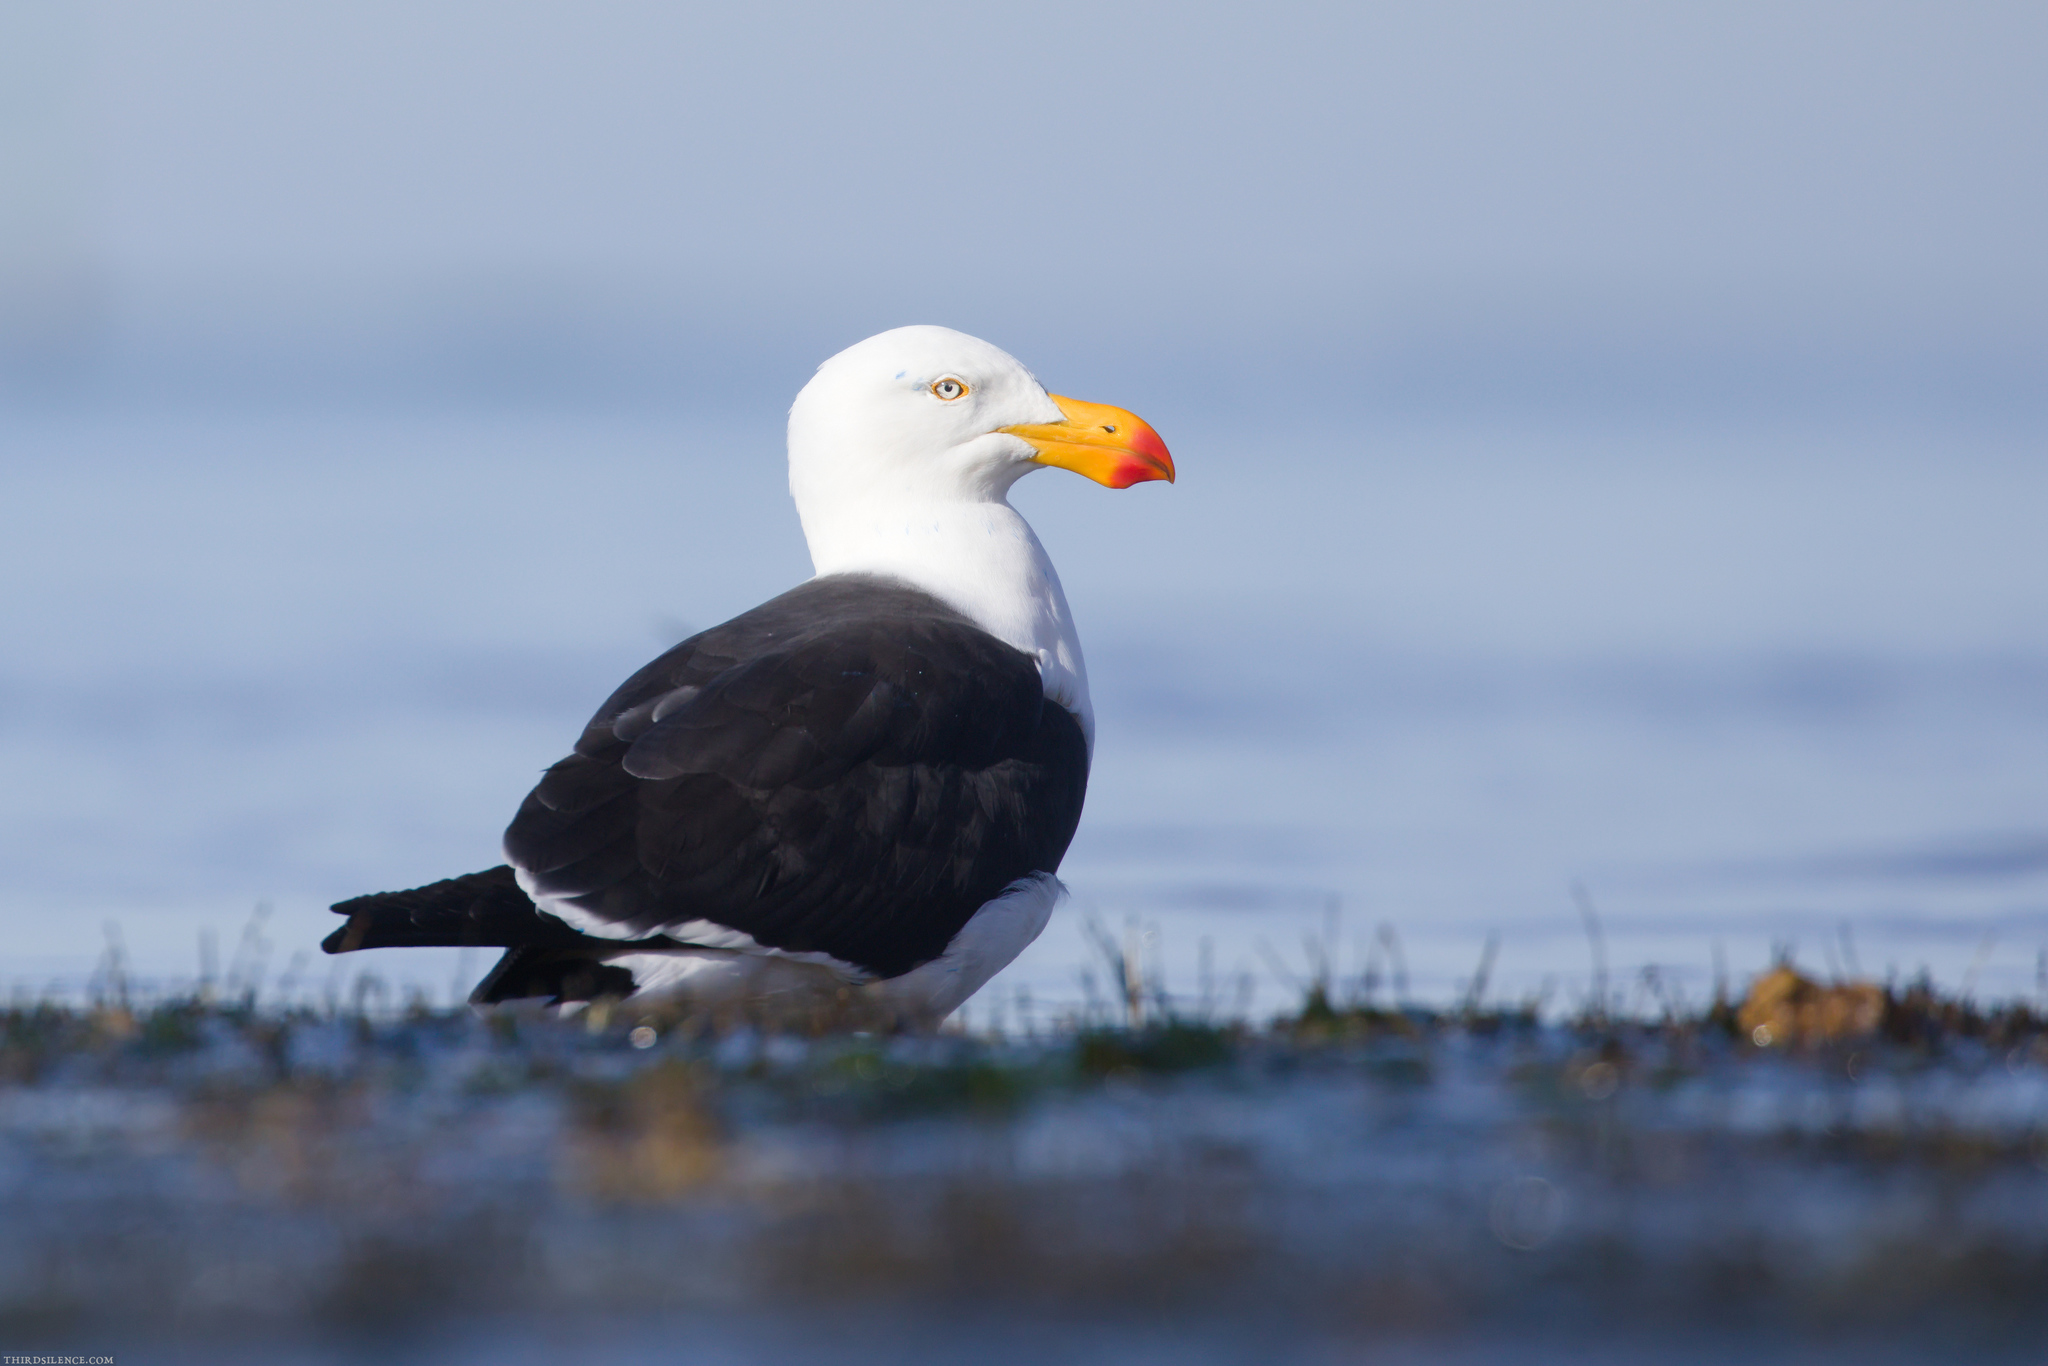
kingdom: Animalia
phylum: Chordata
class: Aves
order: Charadriiformes
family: Laridae
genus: Larus
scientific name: Larus pacificus
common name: Pacific gull
